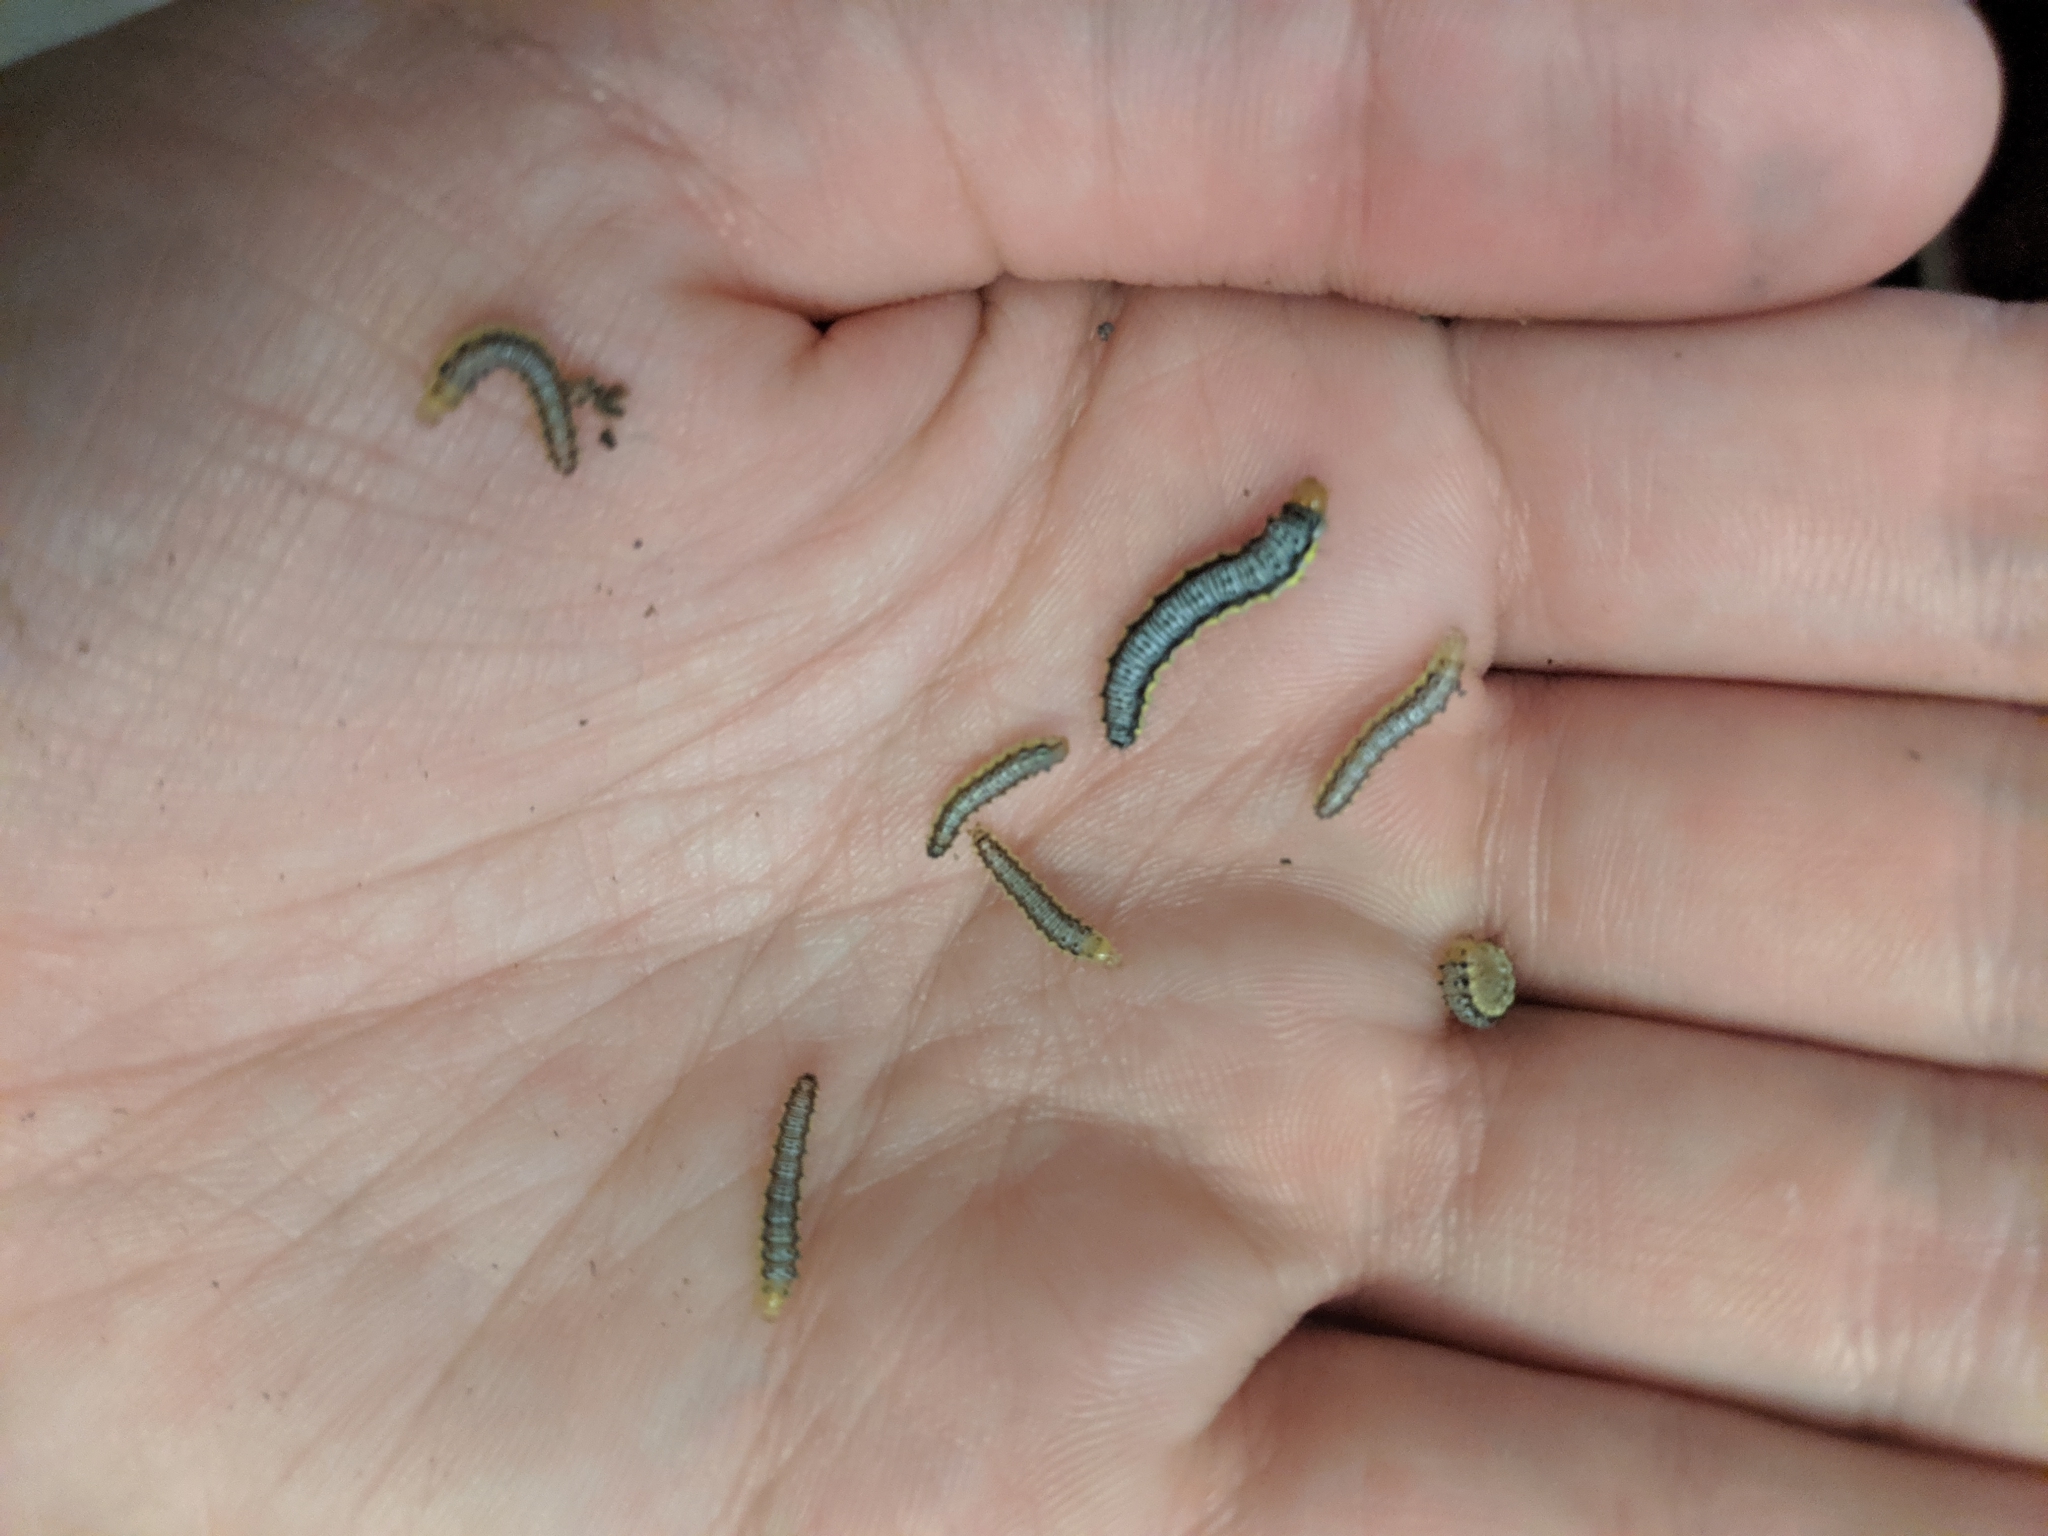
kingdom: Animalia
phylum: Arthropoda
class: Insecta
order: Lepidoptera
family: Crambidae
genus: Evergestis
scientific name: Evergestis rimosalis
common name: Cross-striped cabbageworm moth
